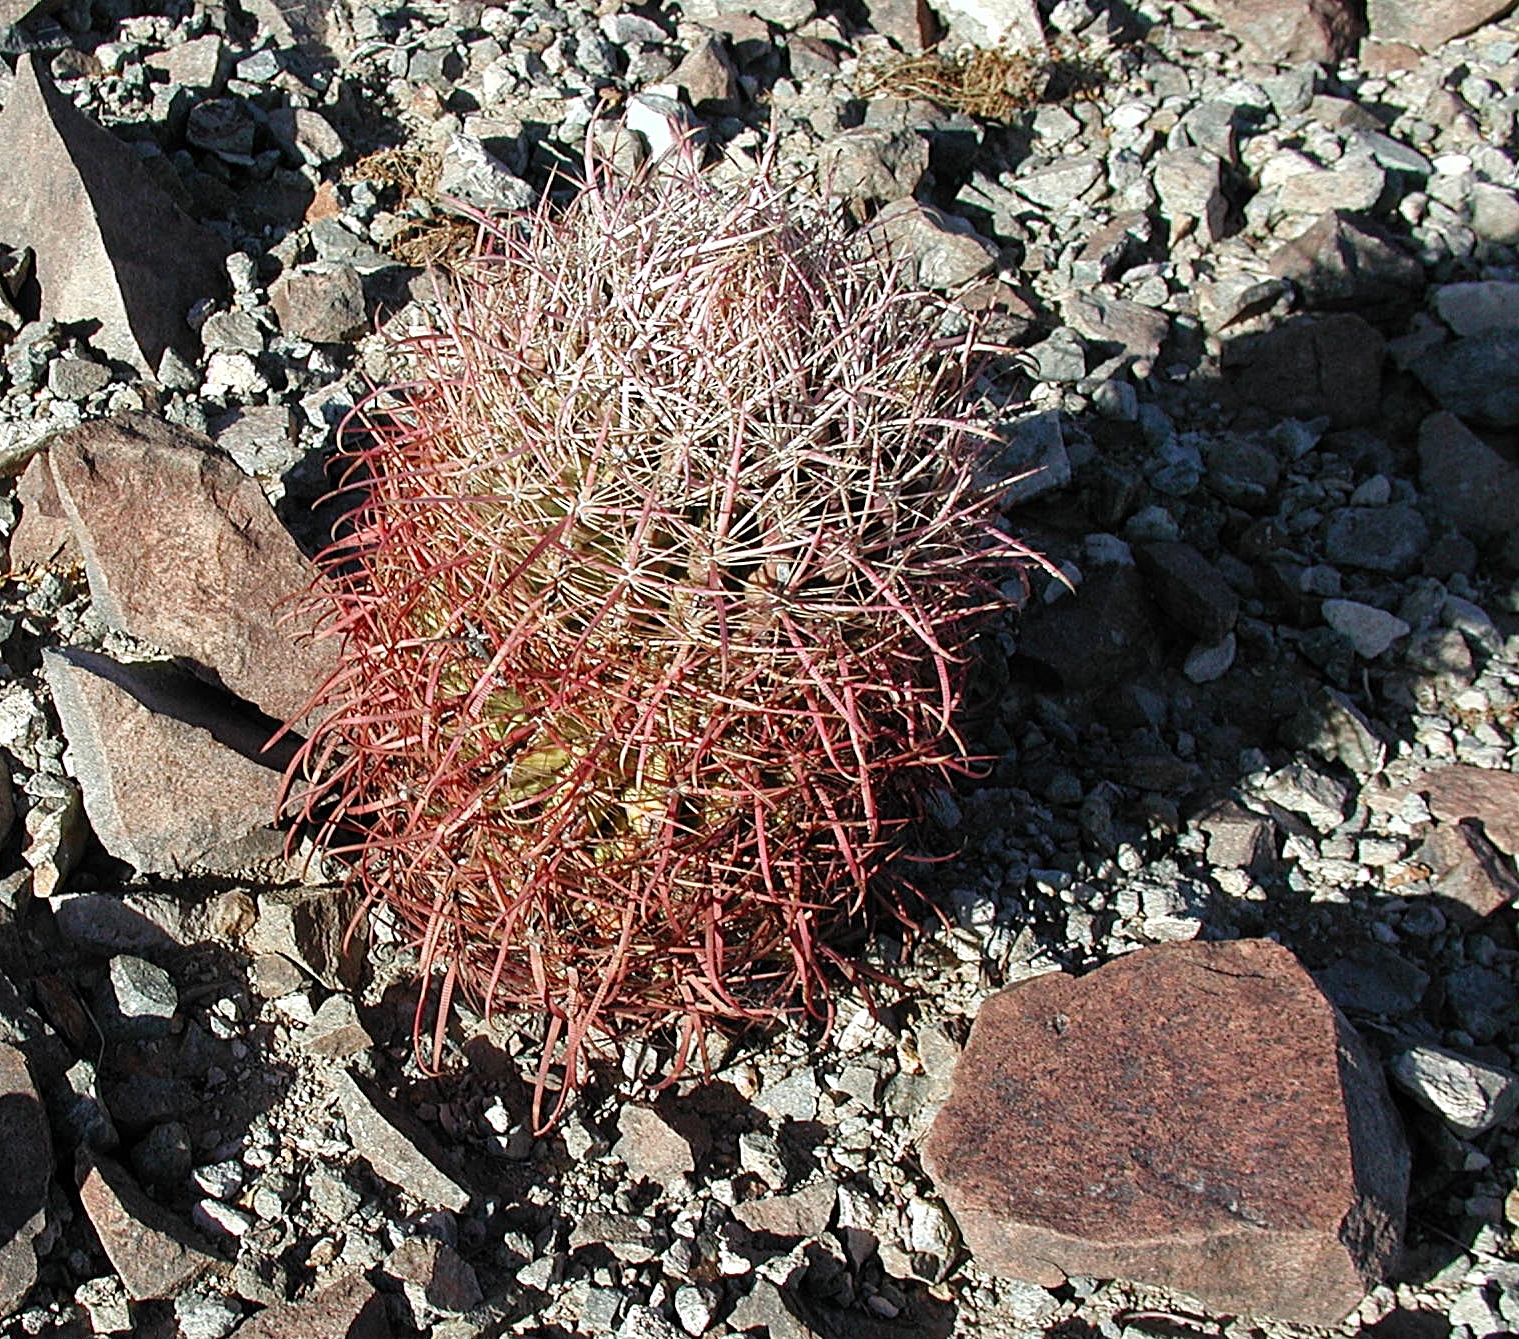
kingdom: Plantae
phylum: Tracheophyta
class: Magnoliopsida
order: Caryophyllales
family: Cactaceae
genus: Ferocactus
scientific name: Ferocactus cylindraceus
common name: California barrel cactus
